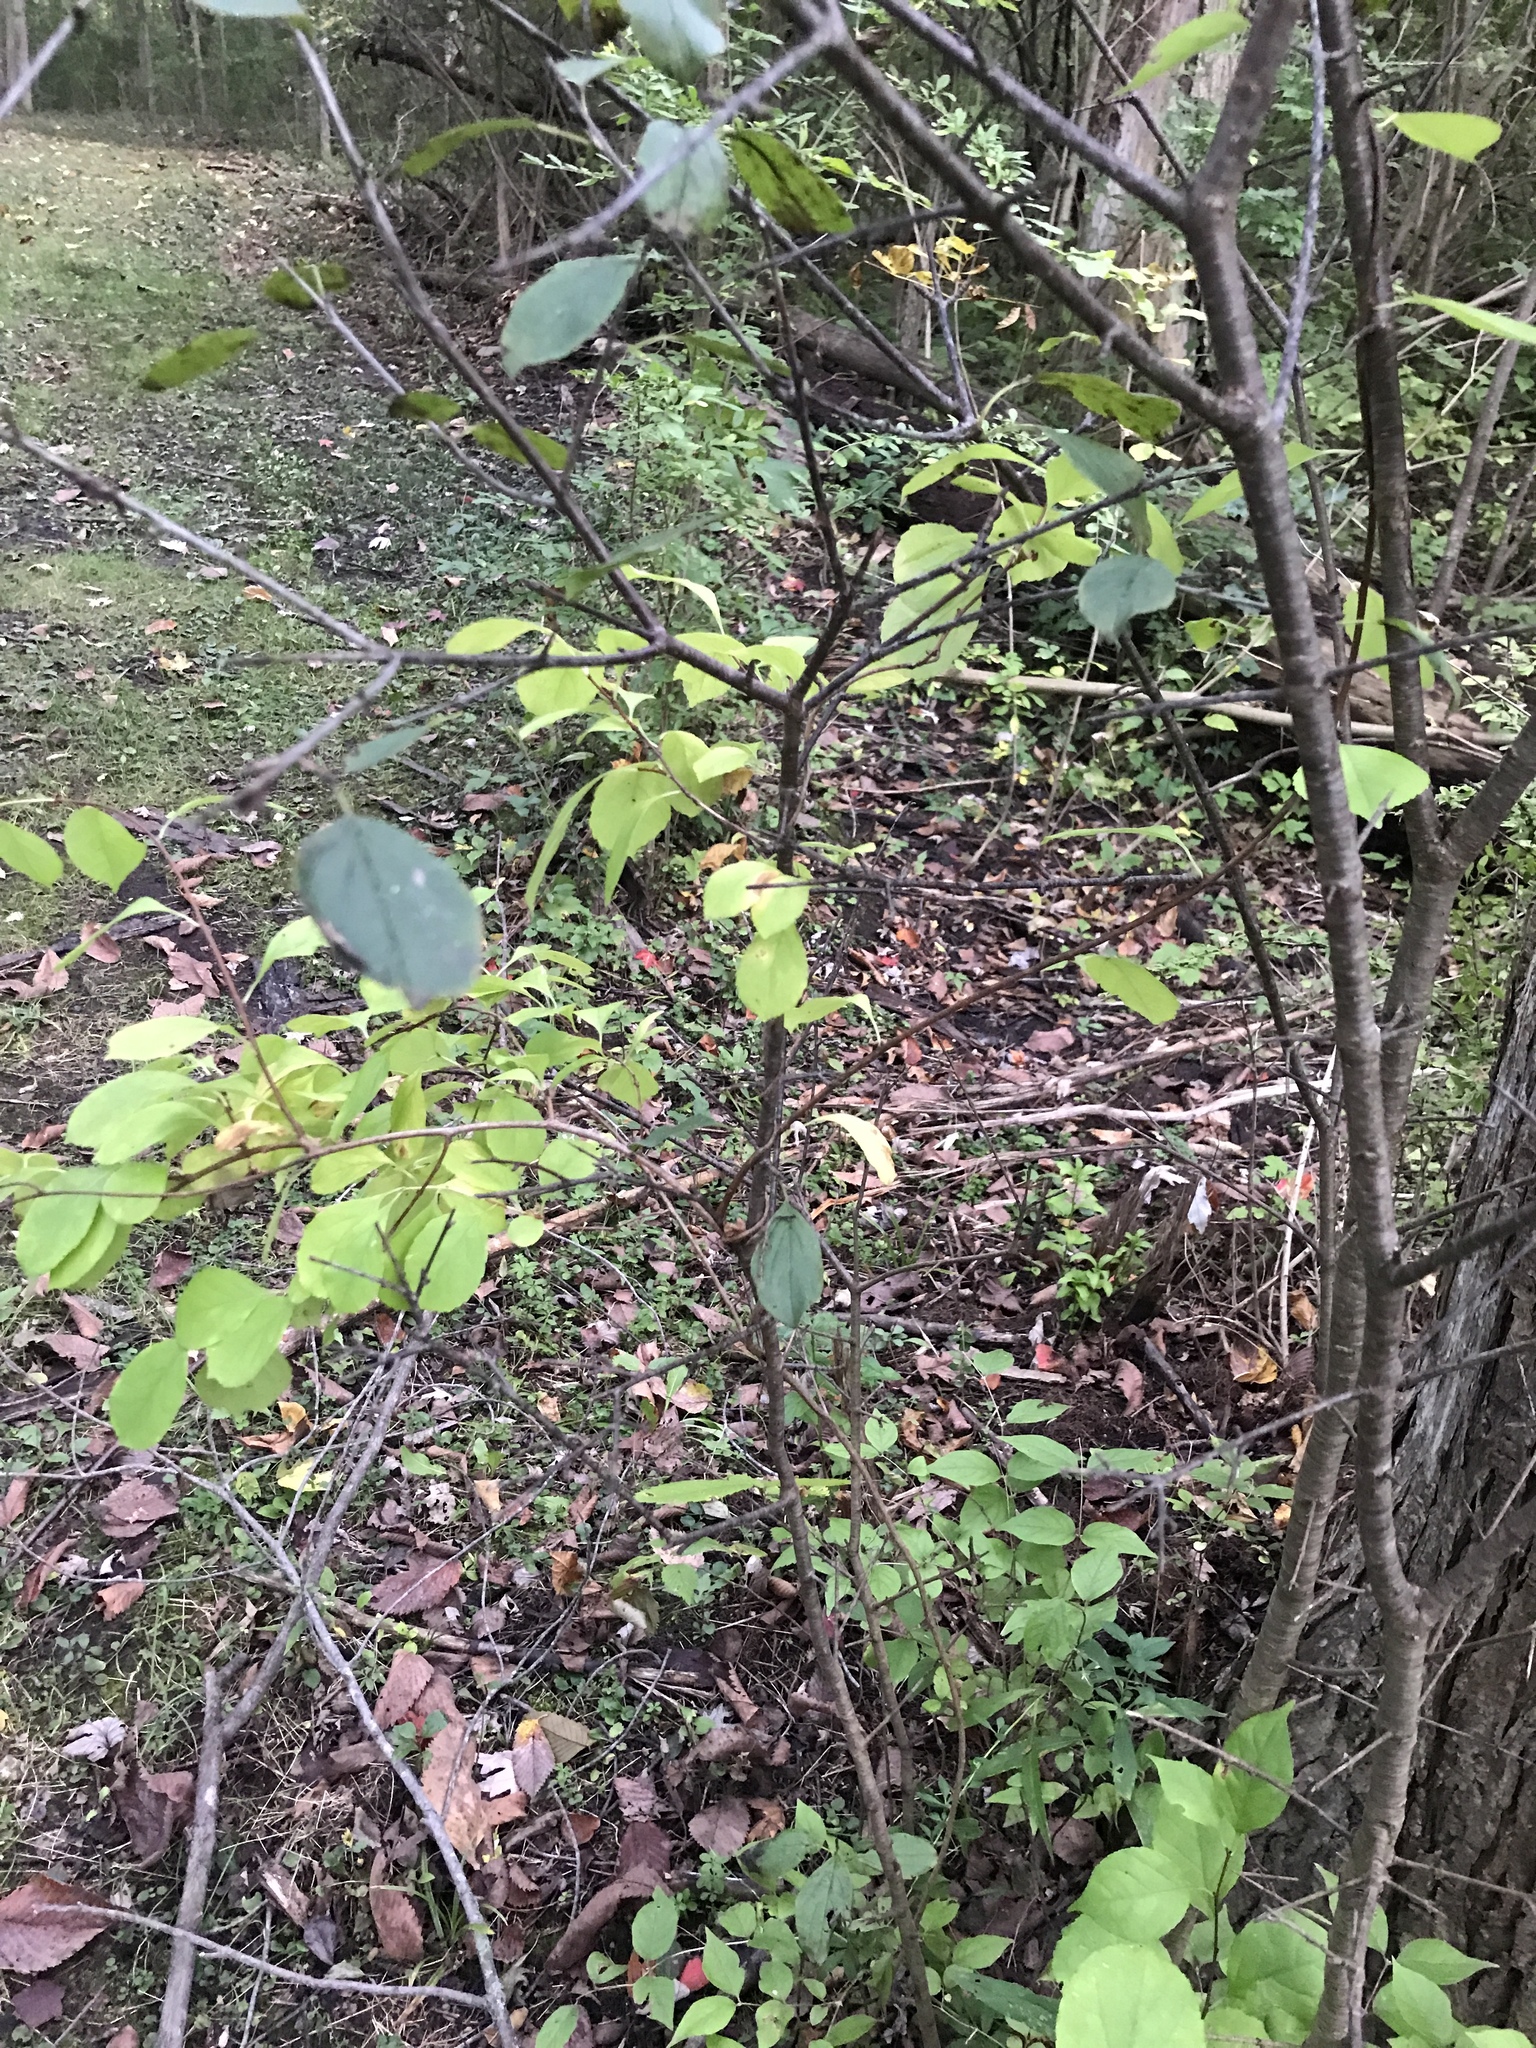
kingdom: Plantae
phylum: Tracheophyta
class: Magnoliopsida
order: Rosales
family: Rhamnaceae
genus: Rhamnus
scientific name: Rhamnus cathartica
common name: Common buckthorn
